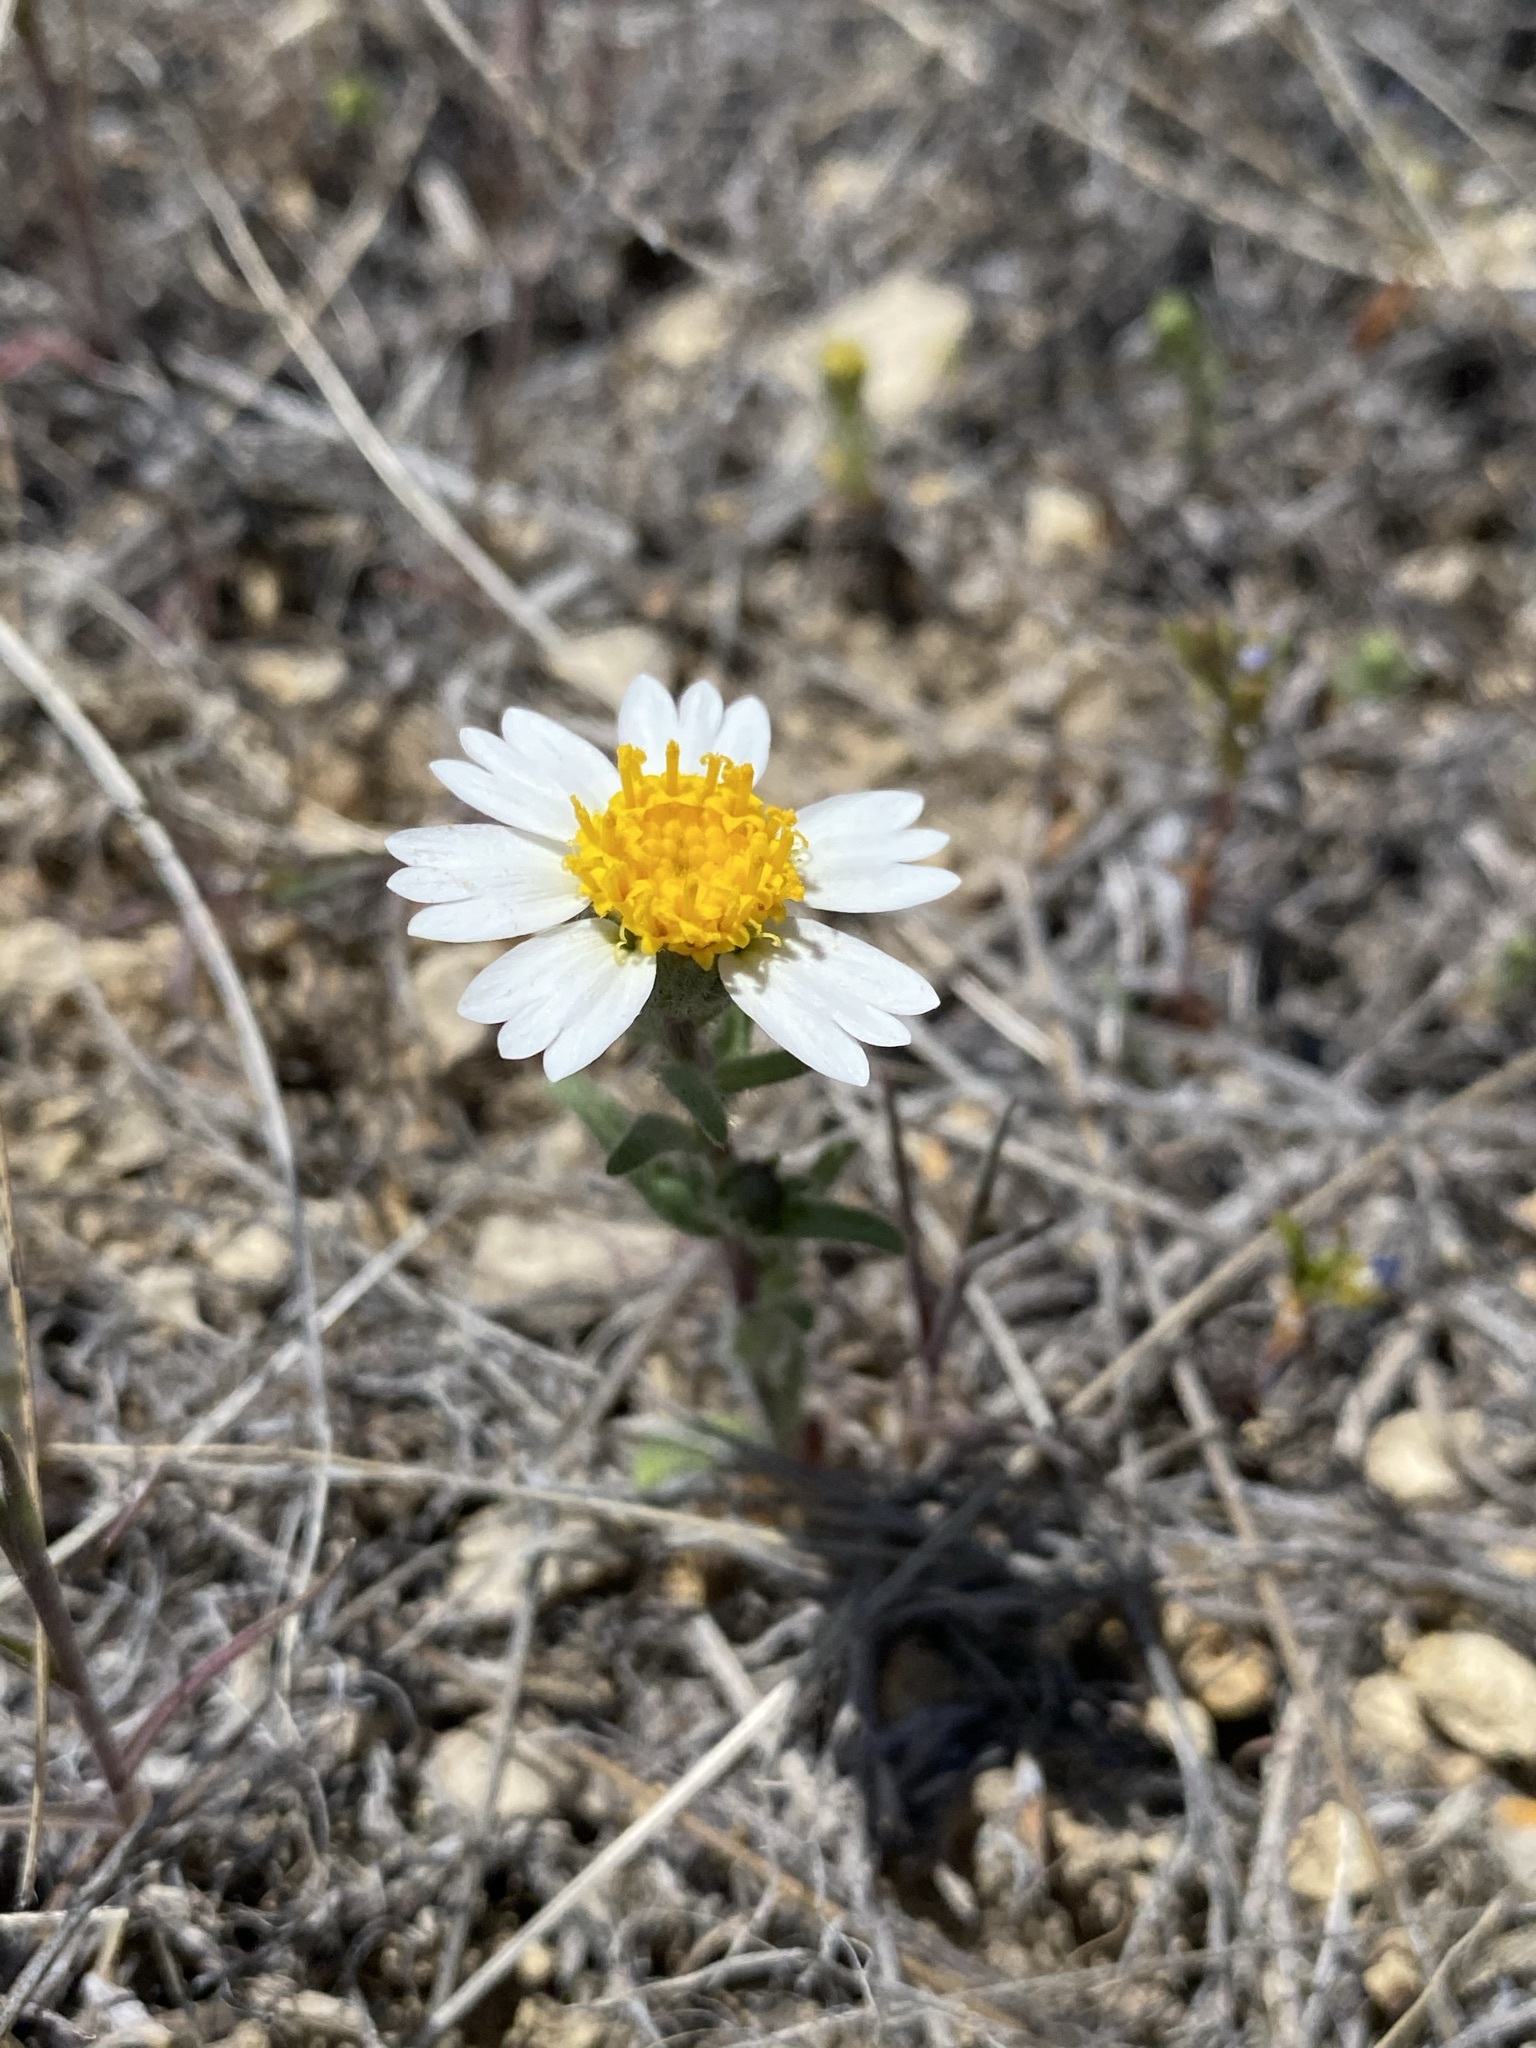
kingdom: Plantae
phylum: Tracheophyta
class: Magnoliopsida
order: Asterales
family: Asteraceae
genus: Layia
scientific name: Layia glandulosa
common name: White layia
